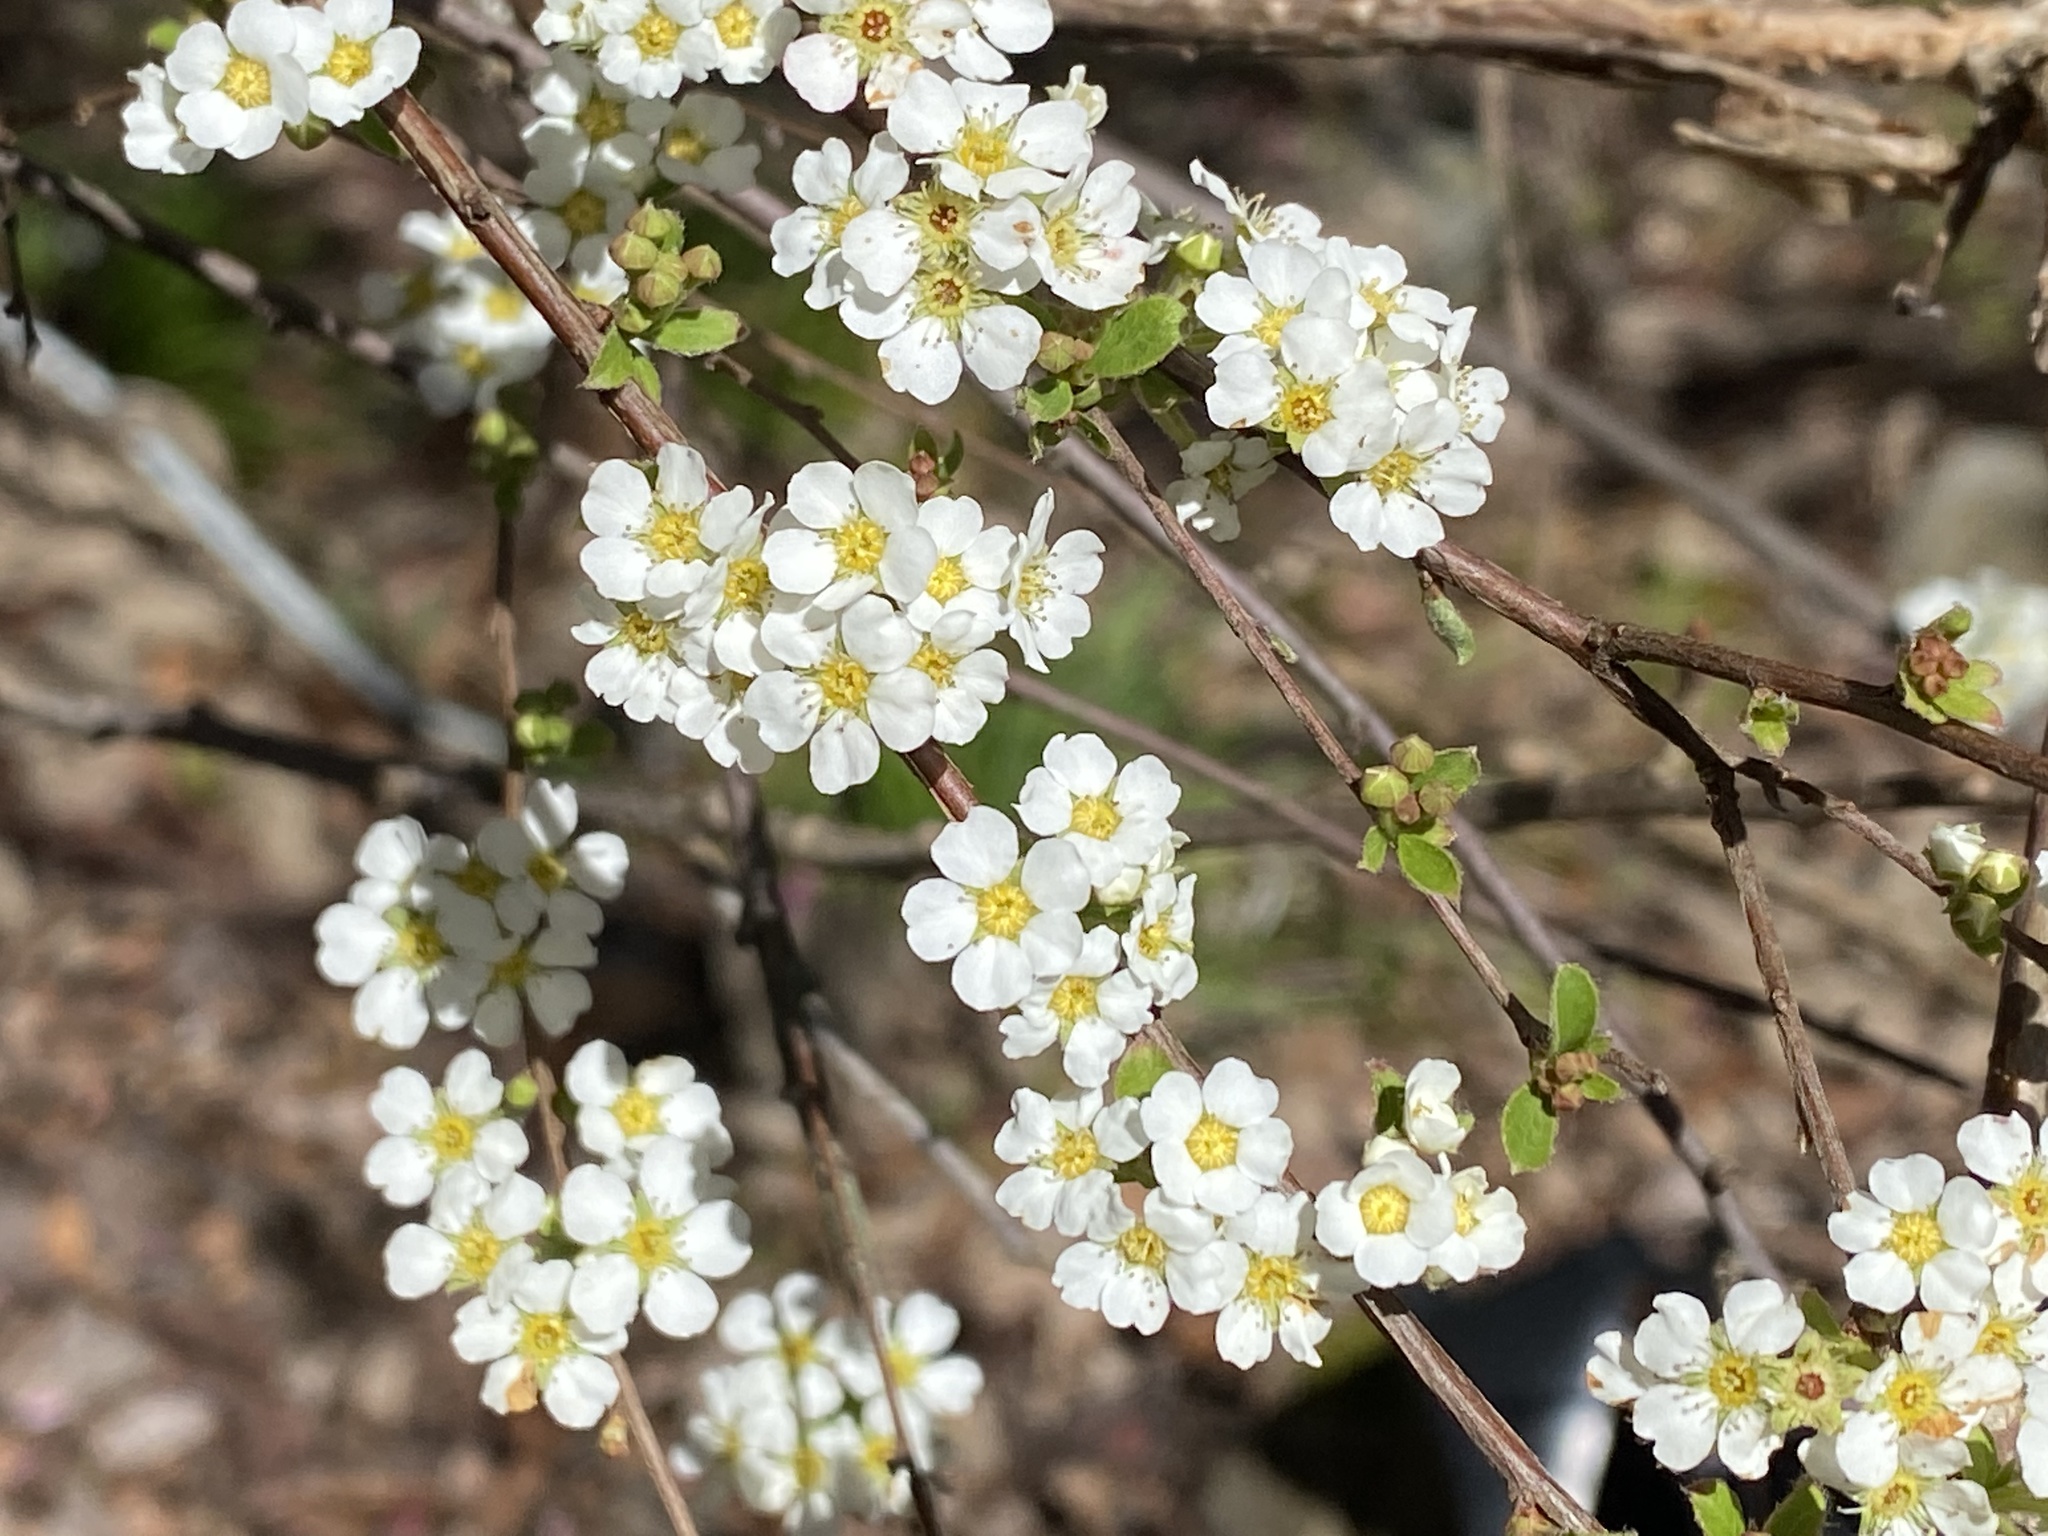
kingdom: Plantae
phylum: Tracheophyta
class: Magnoliopsida
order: Rosales
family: Rosaceae
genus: Spiraea
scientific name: Spiraea prunifolia
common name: Bridal-wreath spiraea
